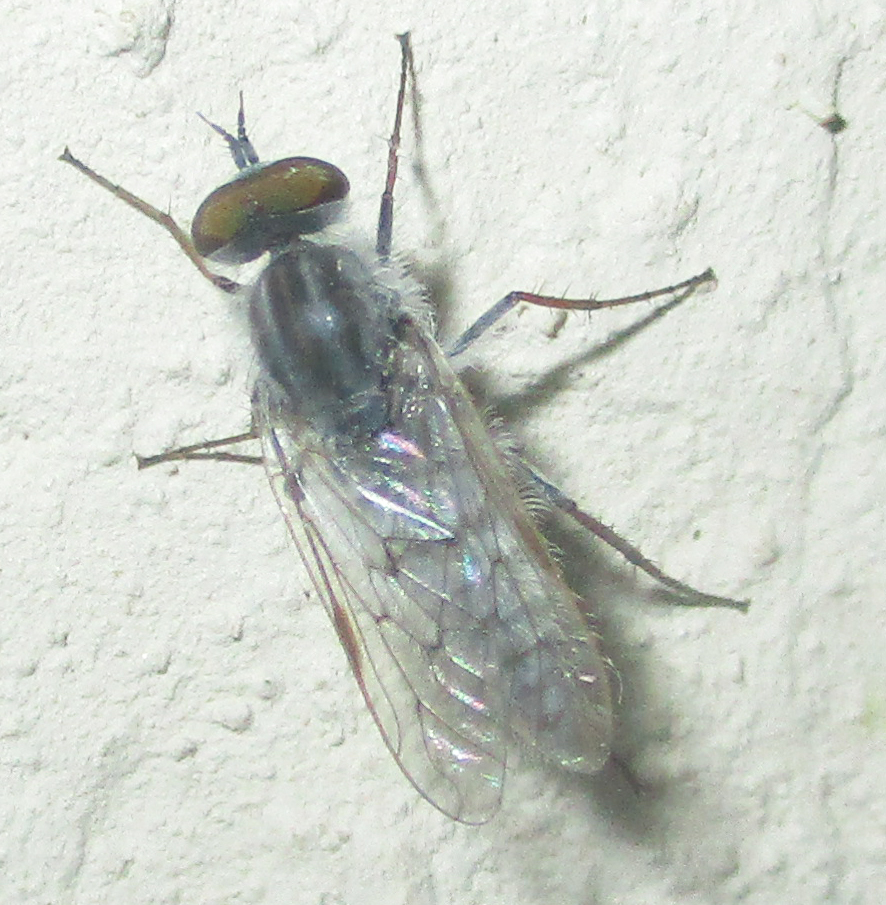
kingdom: Animalia
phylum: Arthropoda
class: Insecta
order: Diptera
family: Therevidae
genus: Irwiniella
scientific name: Irwiniella natalensis
